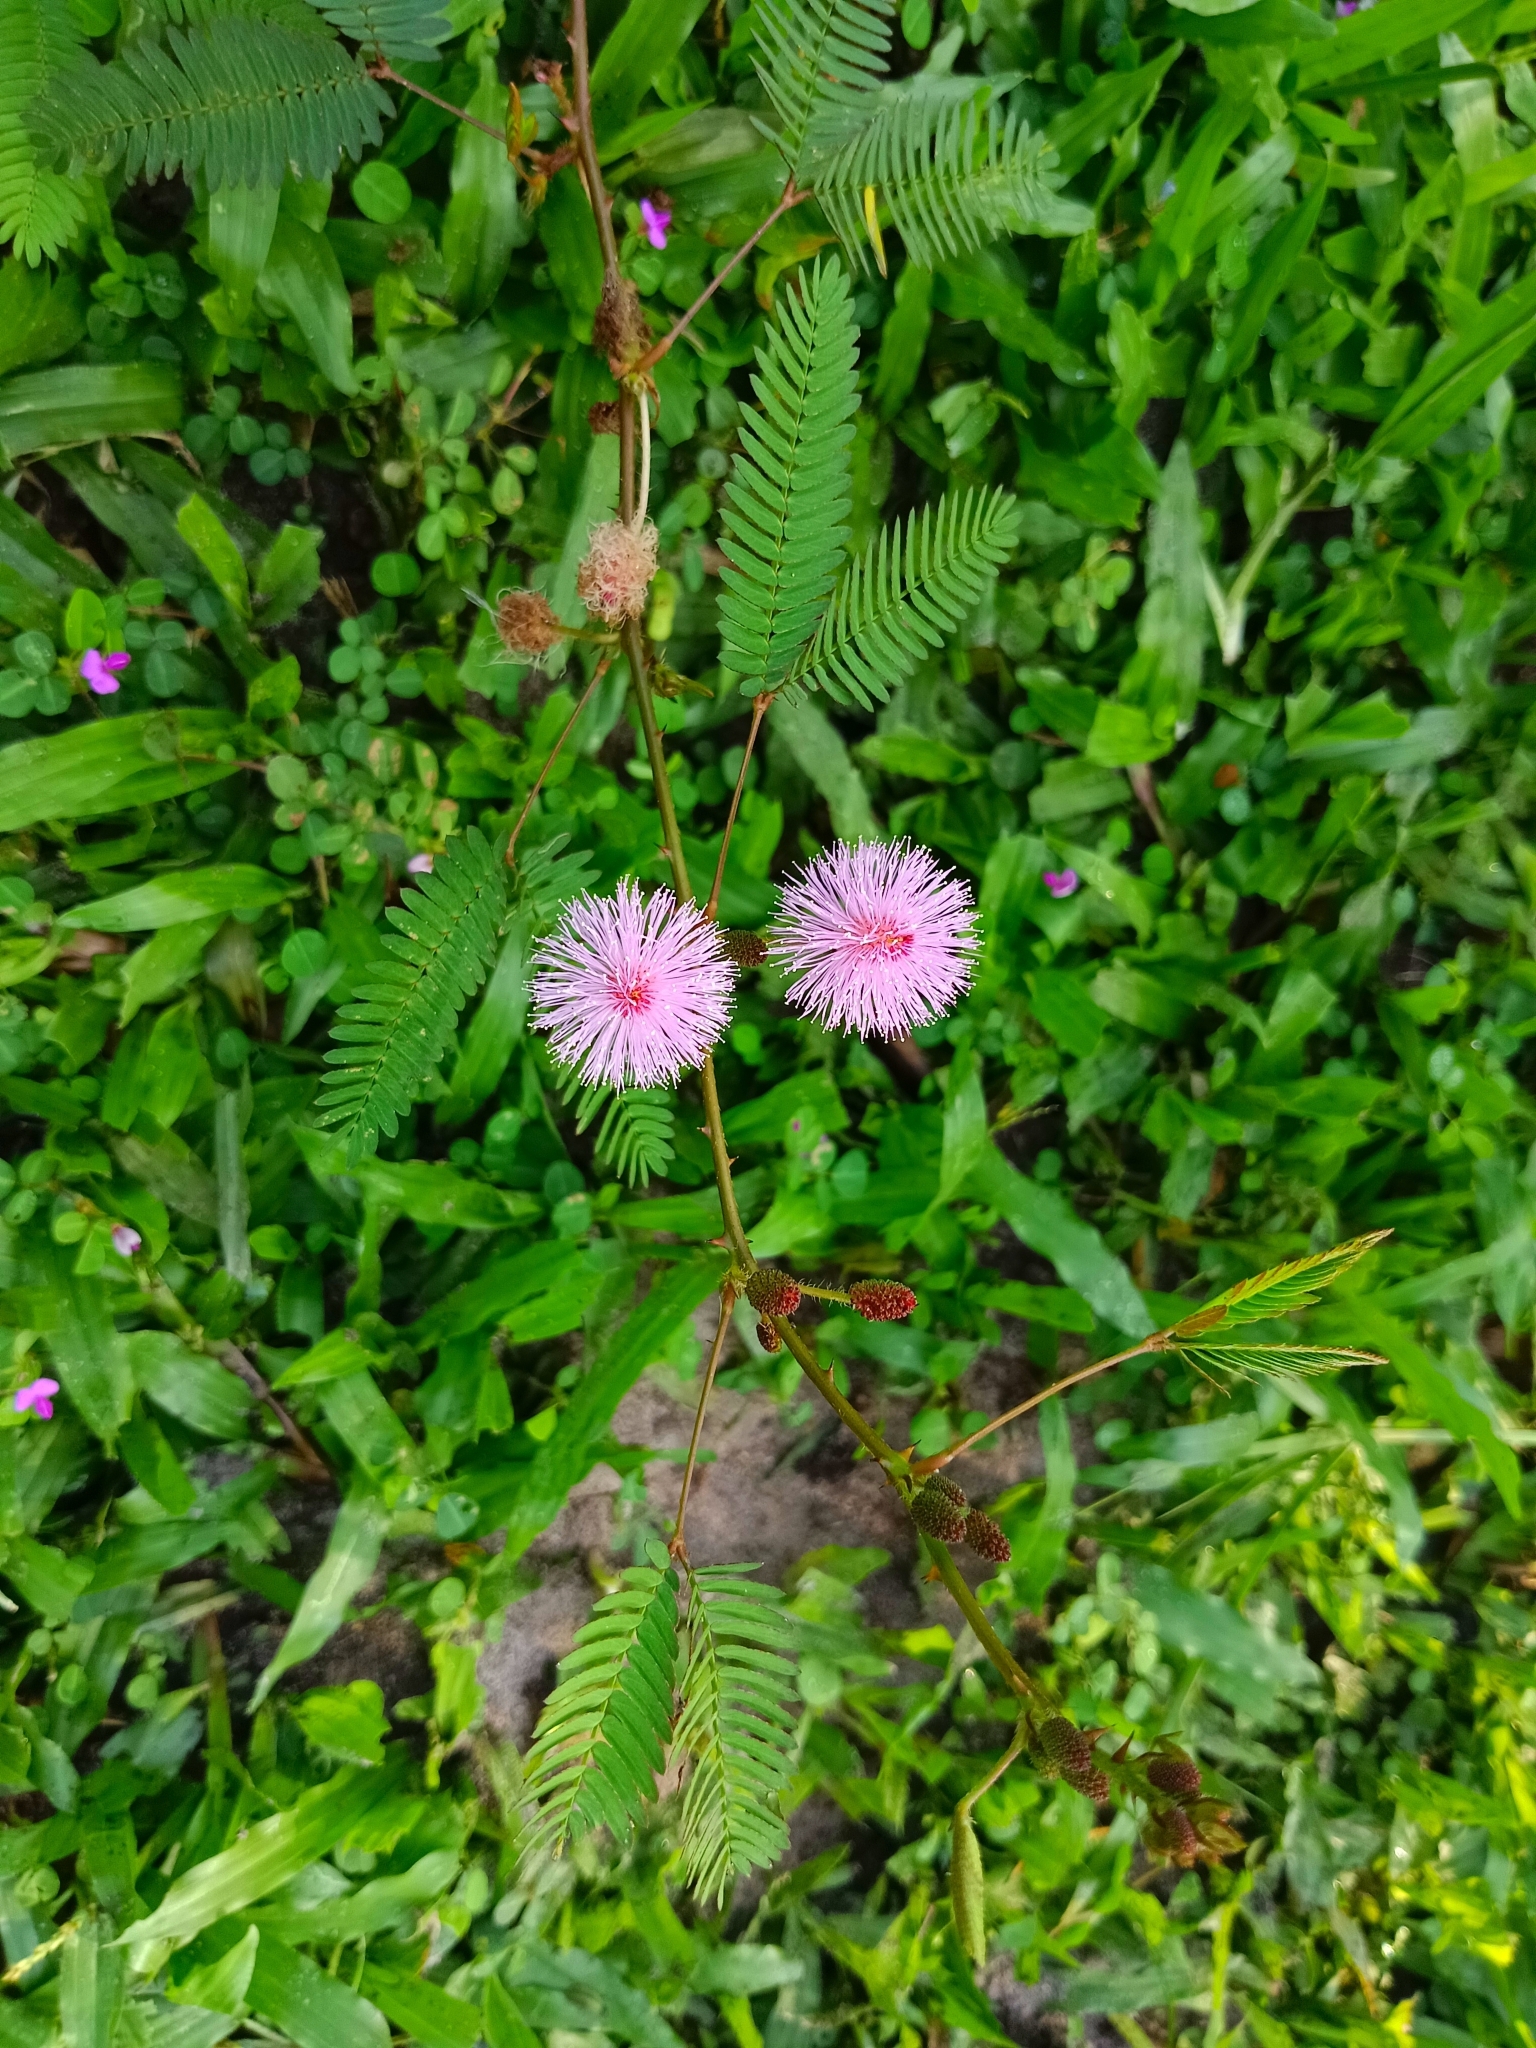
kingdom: Plantae
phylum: Tracheophyta
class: Magnoliopsida
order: Fabales
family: Fabaceae
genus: Mimosa
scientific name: Mimosa pudica
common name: Sensitive plant
